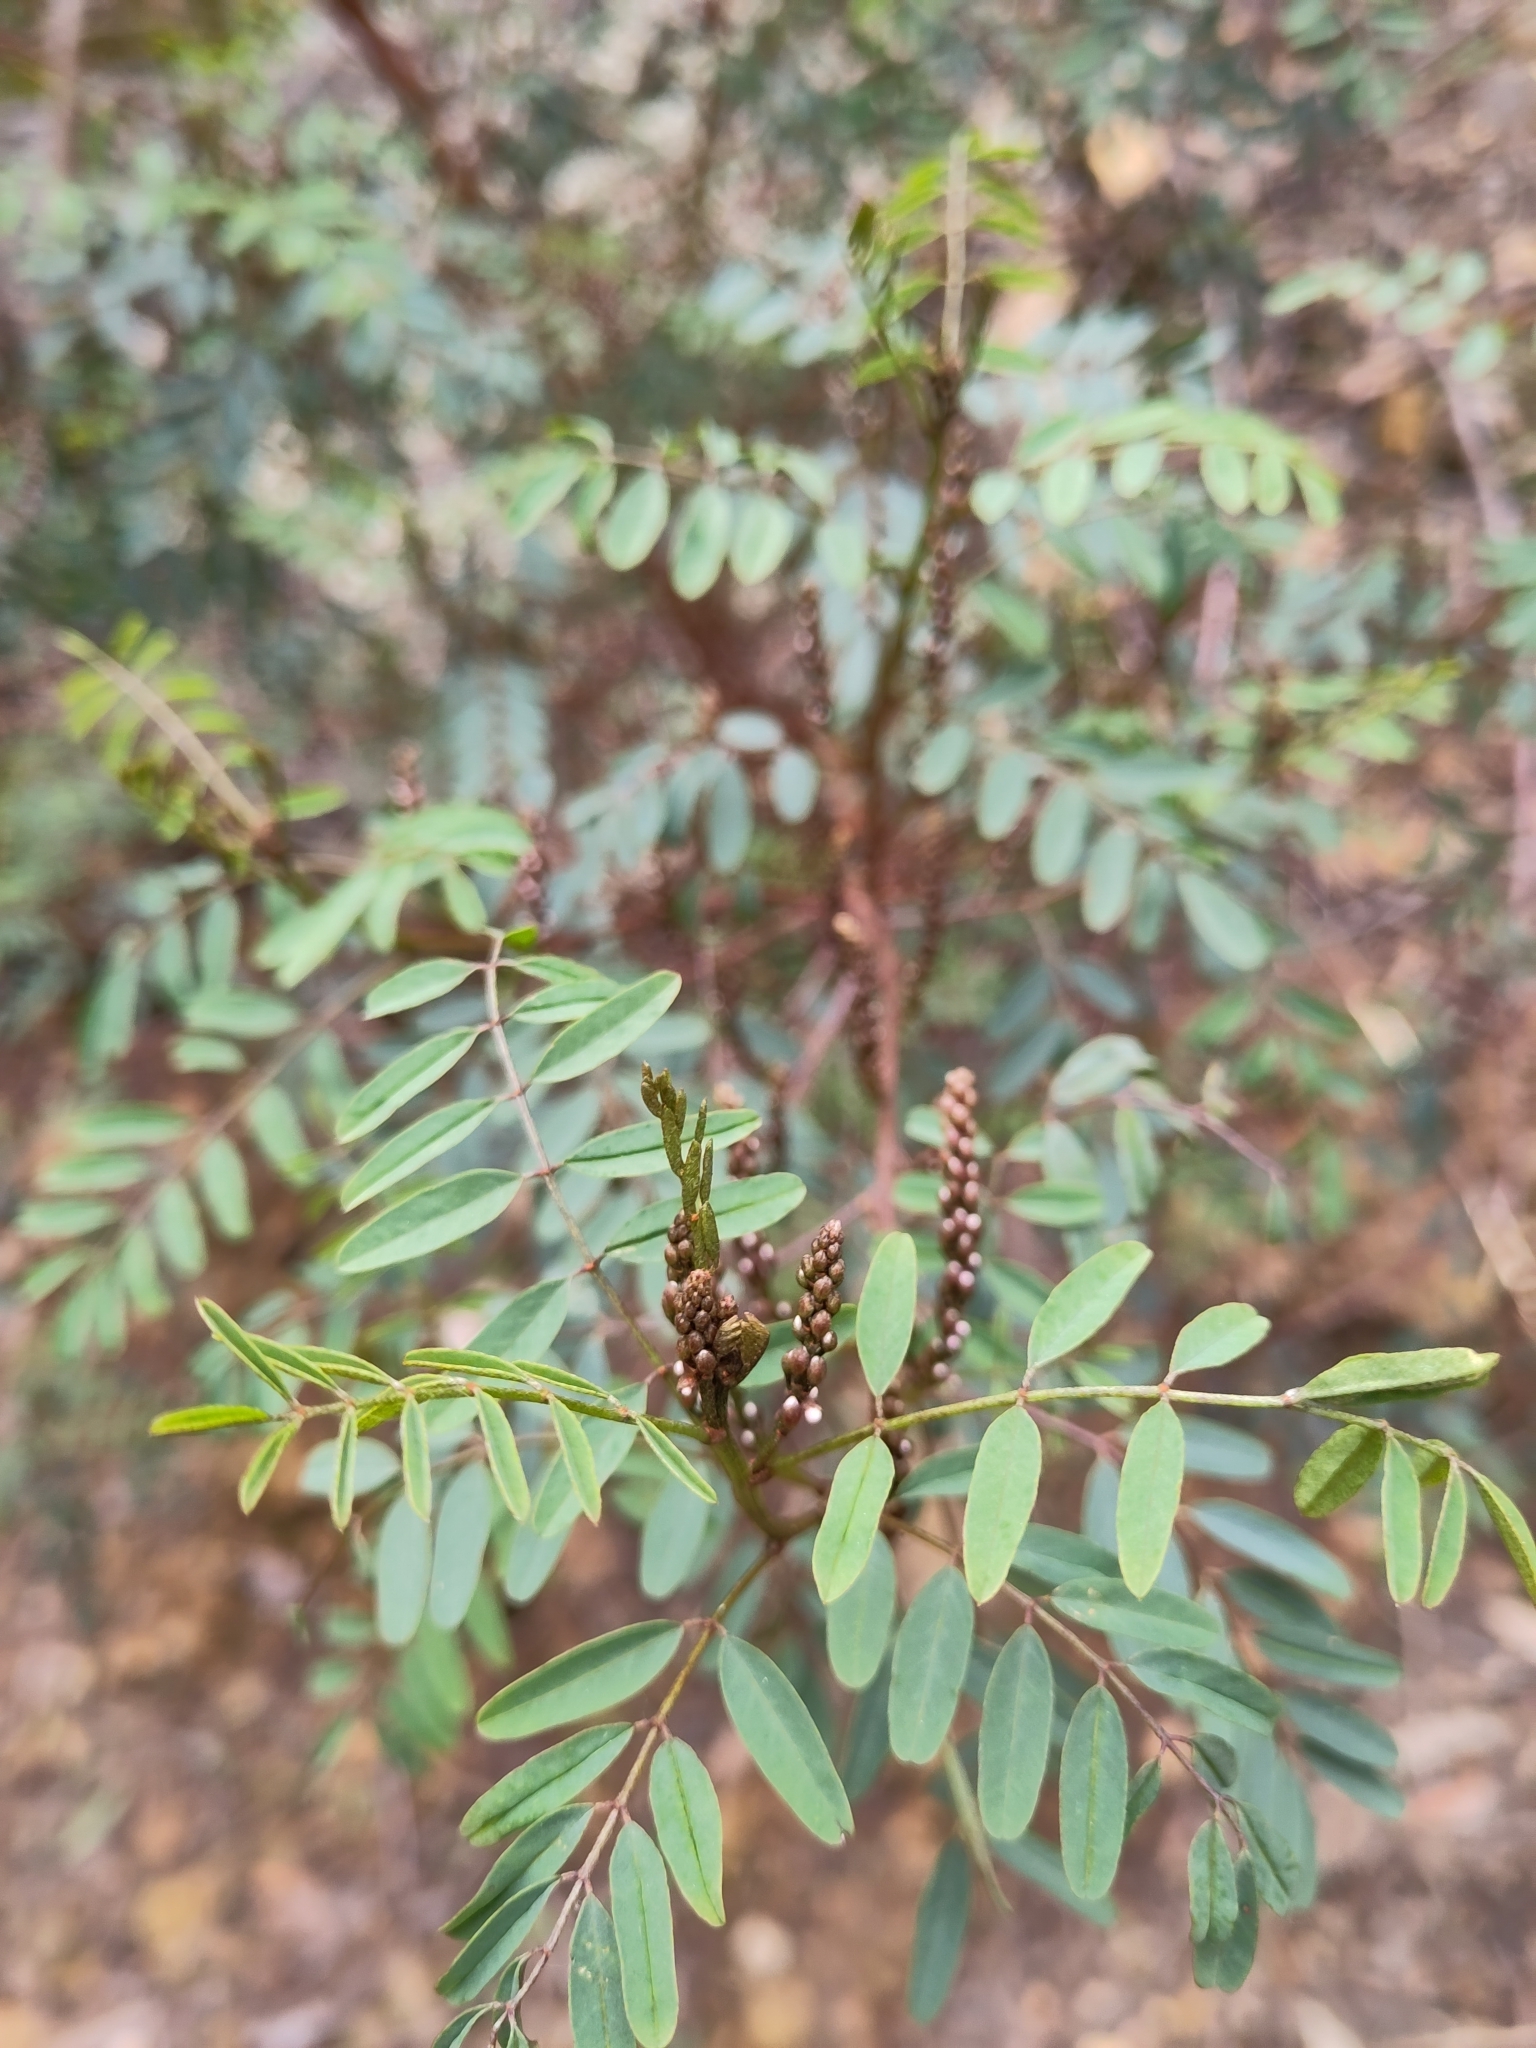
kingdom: Plantae
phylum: Tracheophyta
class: Magnoliopsida
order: Fabales
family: Fabaceae
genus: Indigofera
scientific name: Indigofera australis
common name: Australian indigo
